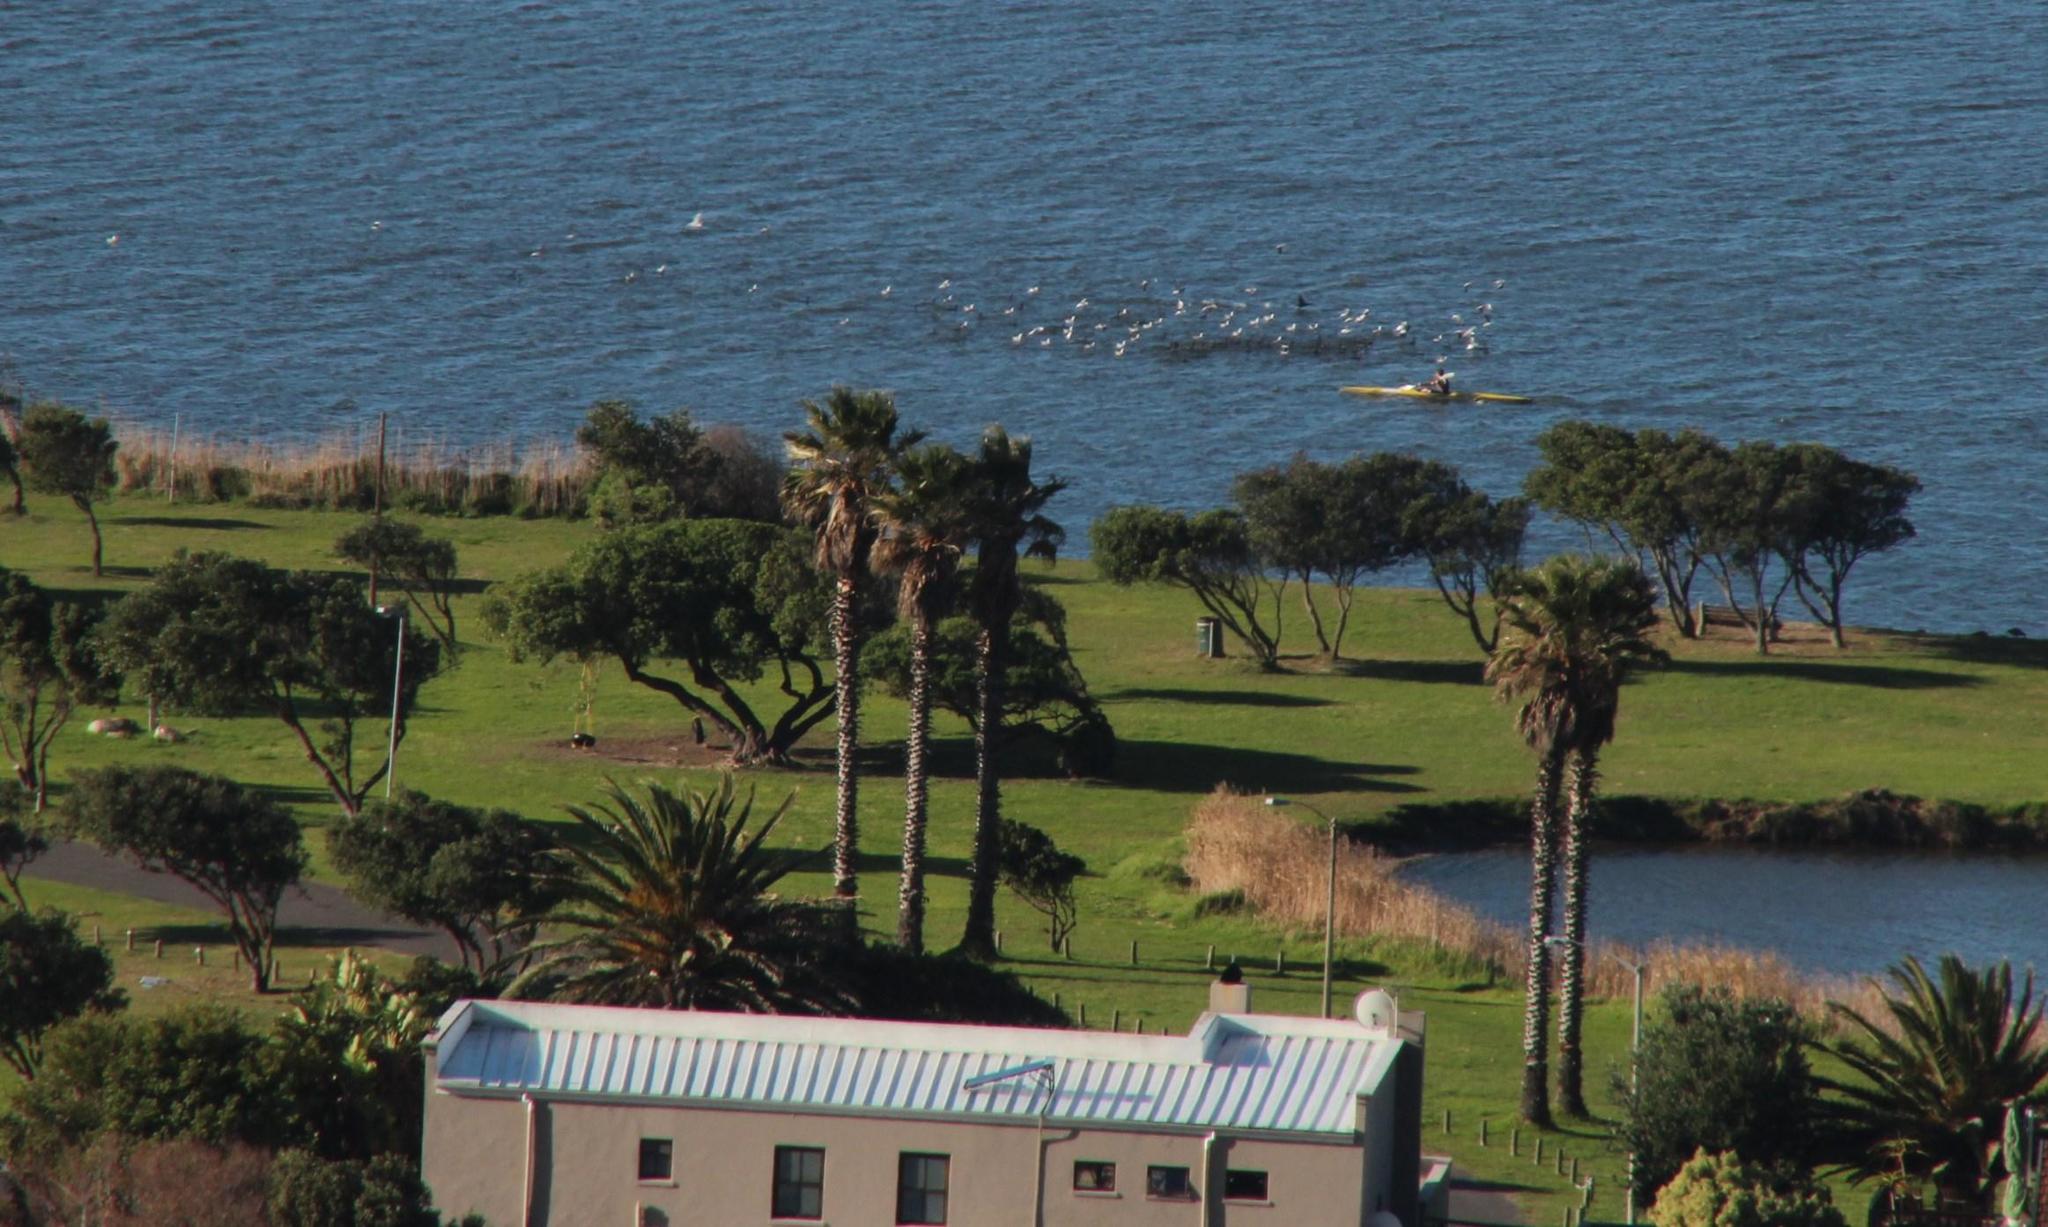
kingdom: Animalia
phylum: Chordata
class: Aves
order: Charadriiformes
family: Laridae
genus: Chroicocephalus
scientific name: Chroicocephalus hartlaubii
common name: Hartlaub's gull
